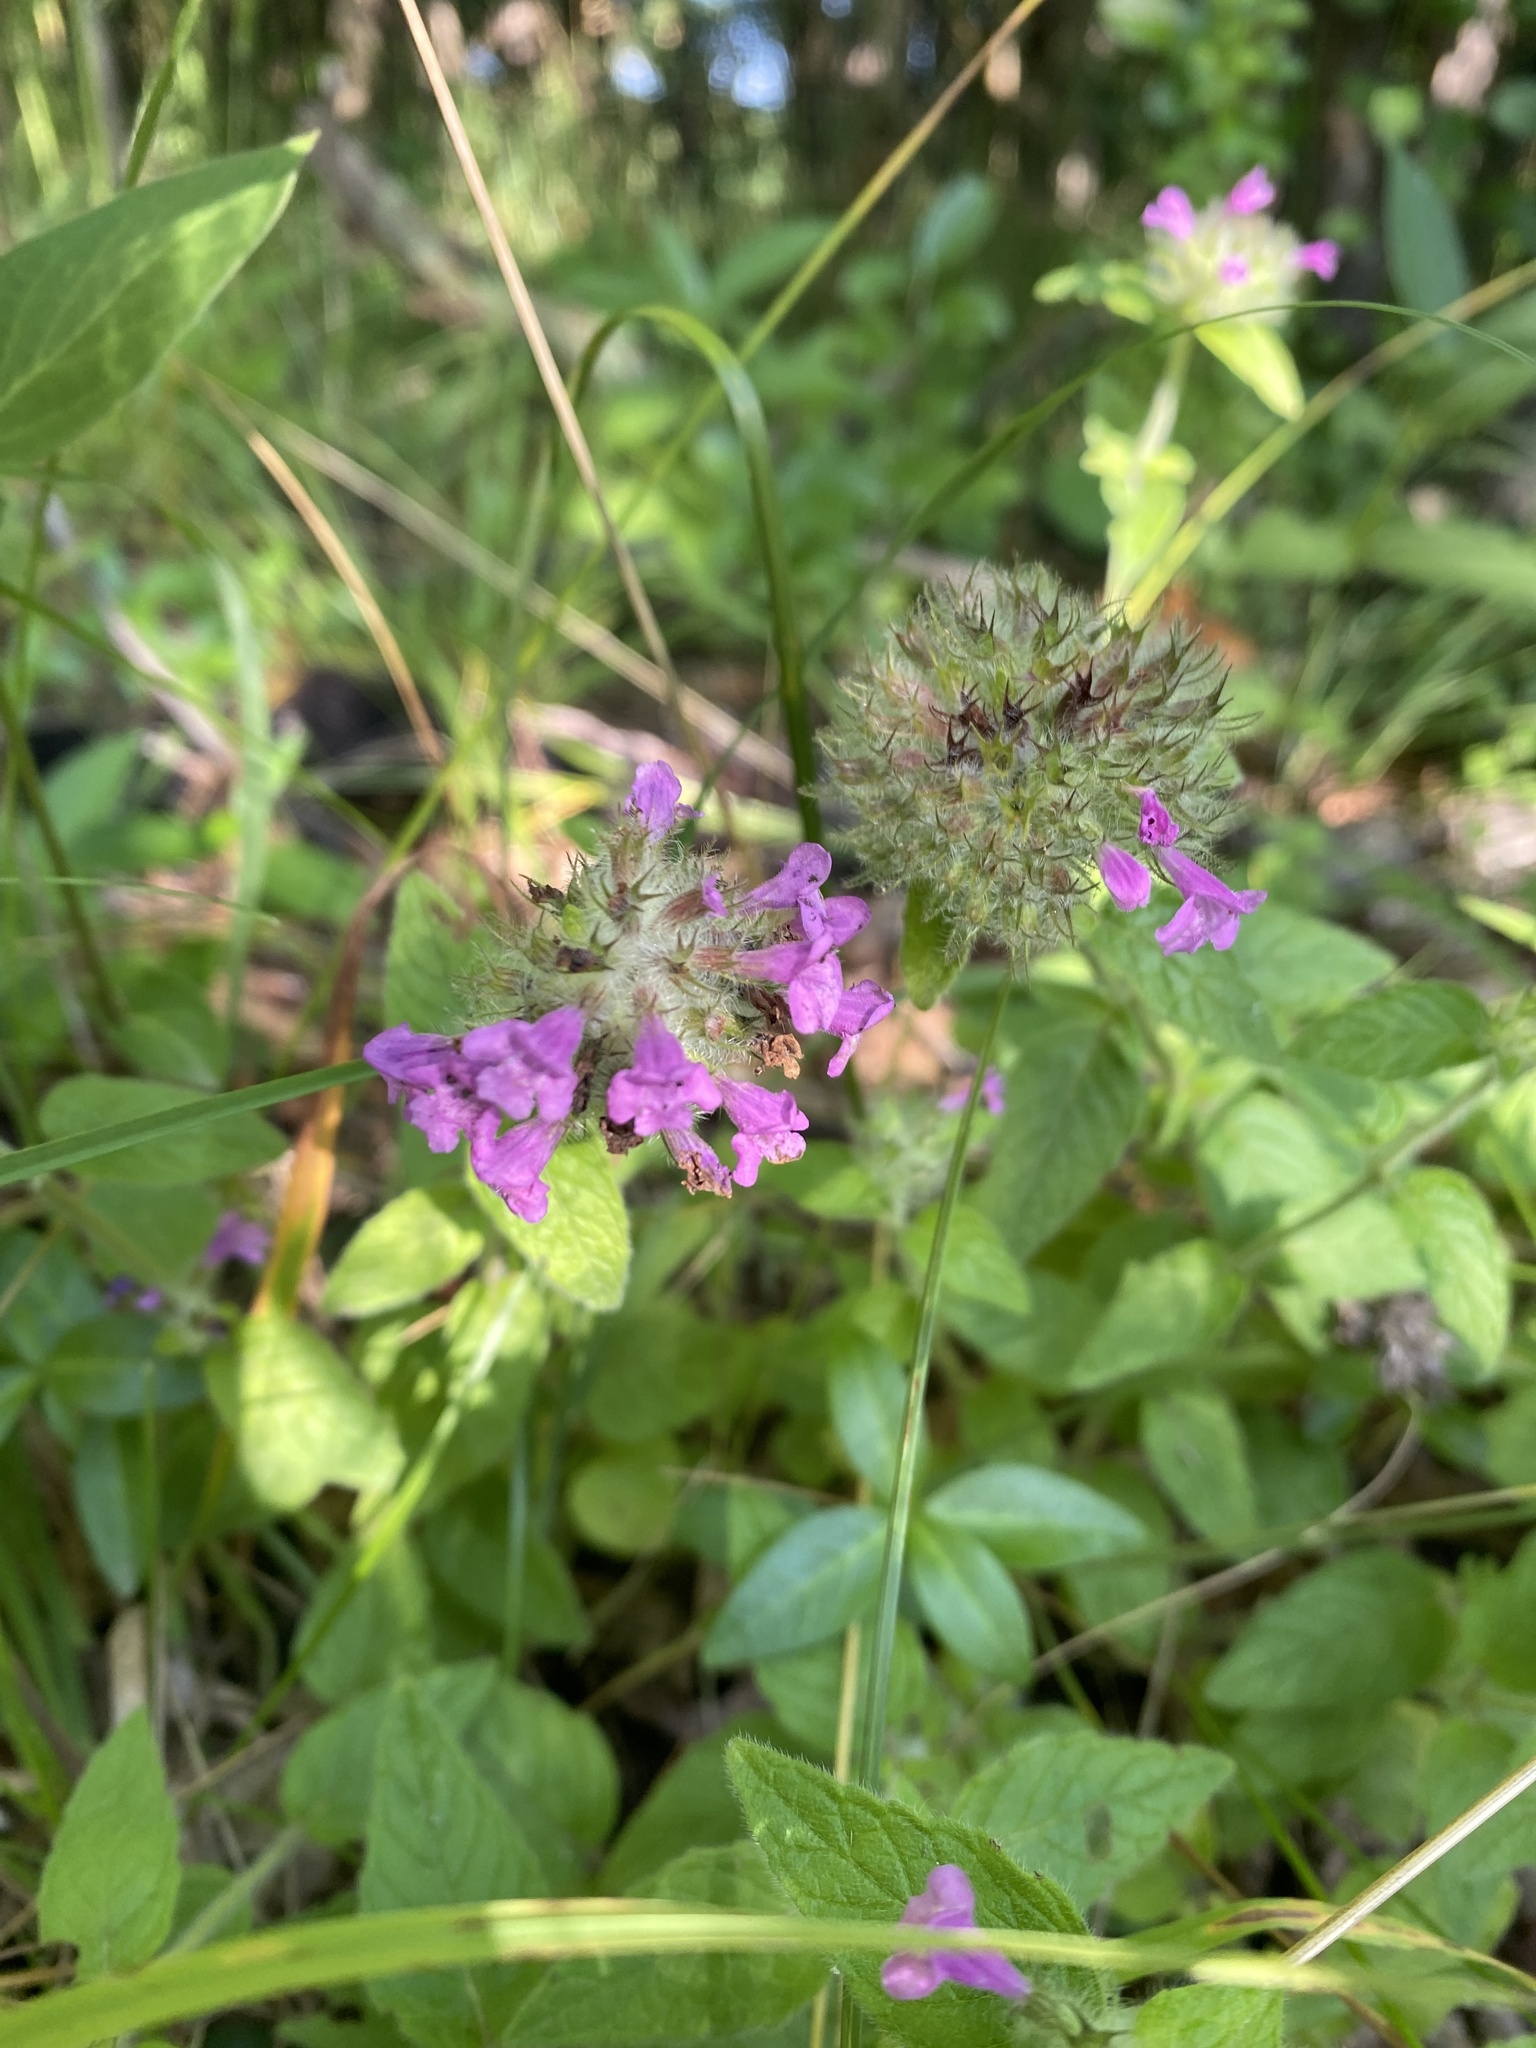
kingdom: Plantae
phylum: Tracheophyta
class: Magnoliopsida
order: Lamiales
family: Lamiaceae
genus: Clinopodium
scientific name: Clinopodium vulgare
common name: Wild basil
